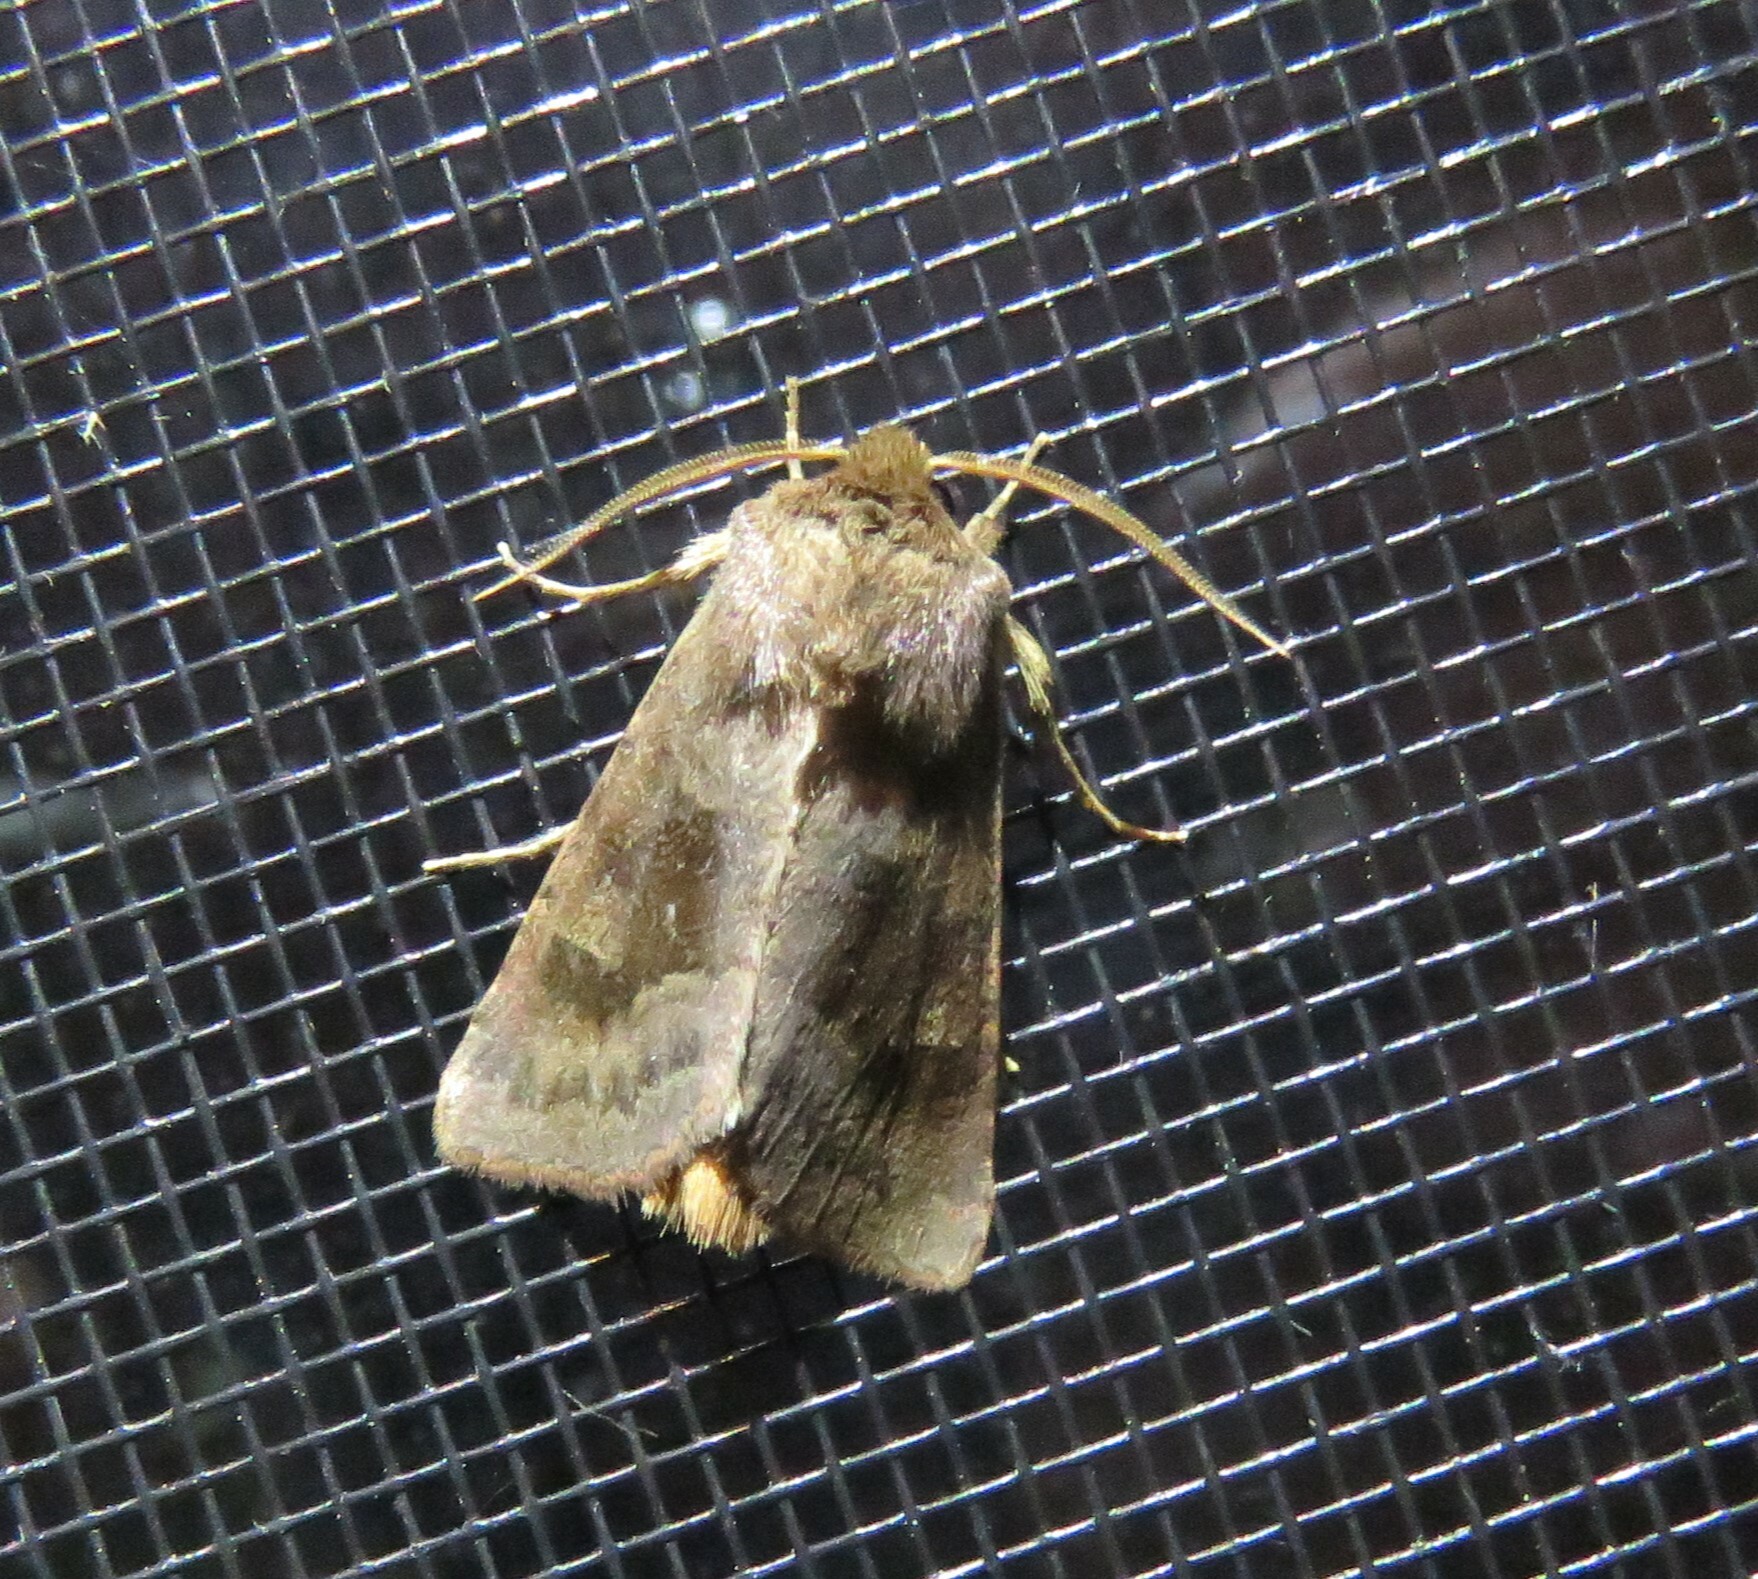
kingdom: Animalia
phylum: Arthropoda
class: Insecta
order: Lepidoptera
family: Noctuidae
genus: Nephelodes
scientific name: Nephelodes minians
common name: Bronzed cutworm
